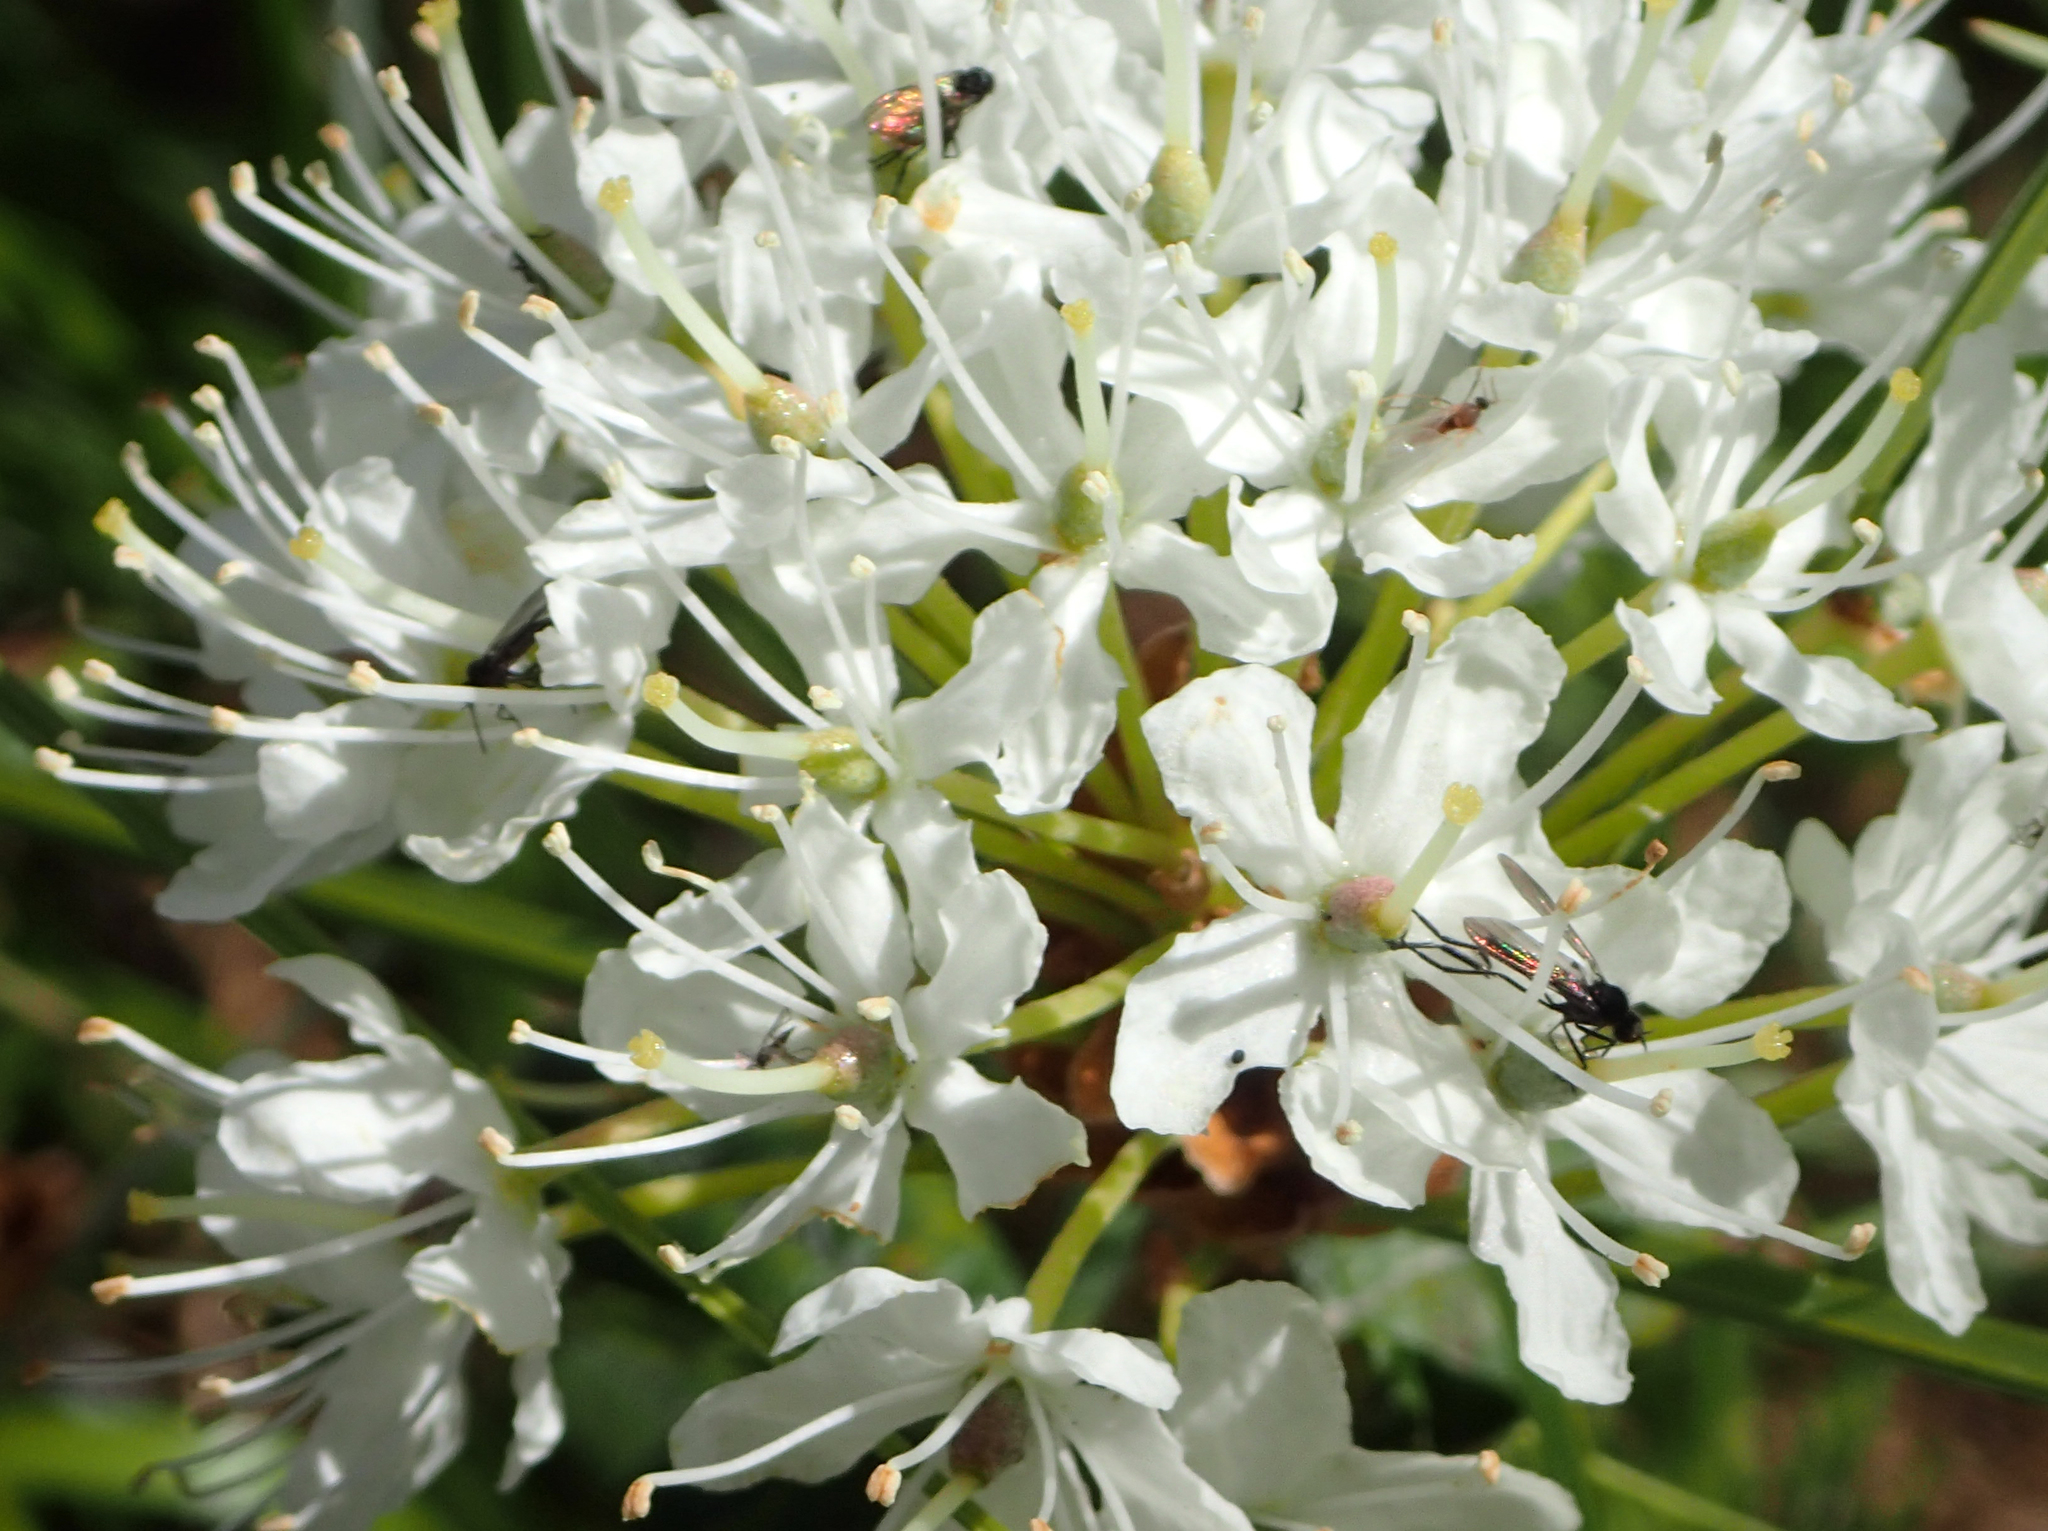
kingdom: Plantae
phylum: Tracheophyta
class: Magnoliopsida
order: Ericales
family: Ericaceae
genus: Rhododendron
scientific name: Rhododendron groenlandicum
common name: Bog labrador tea
